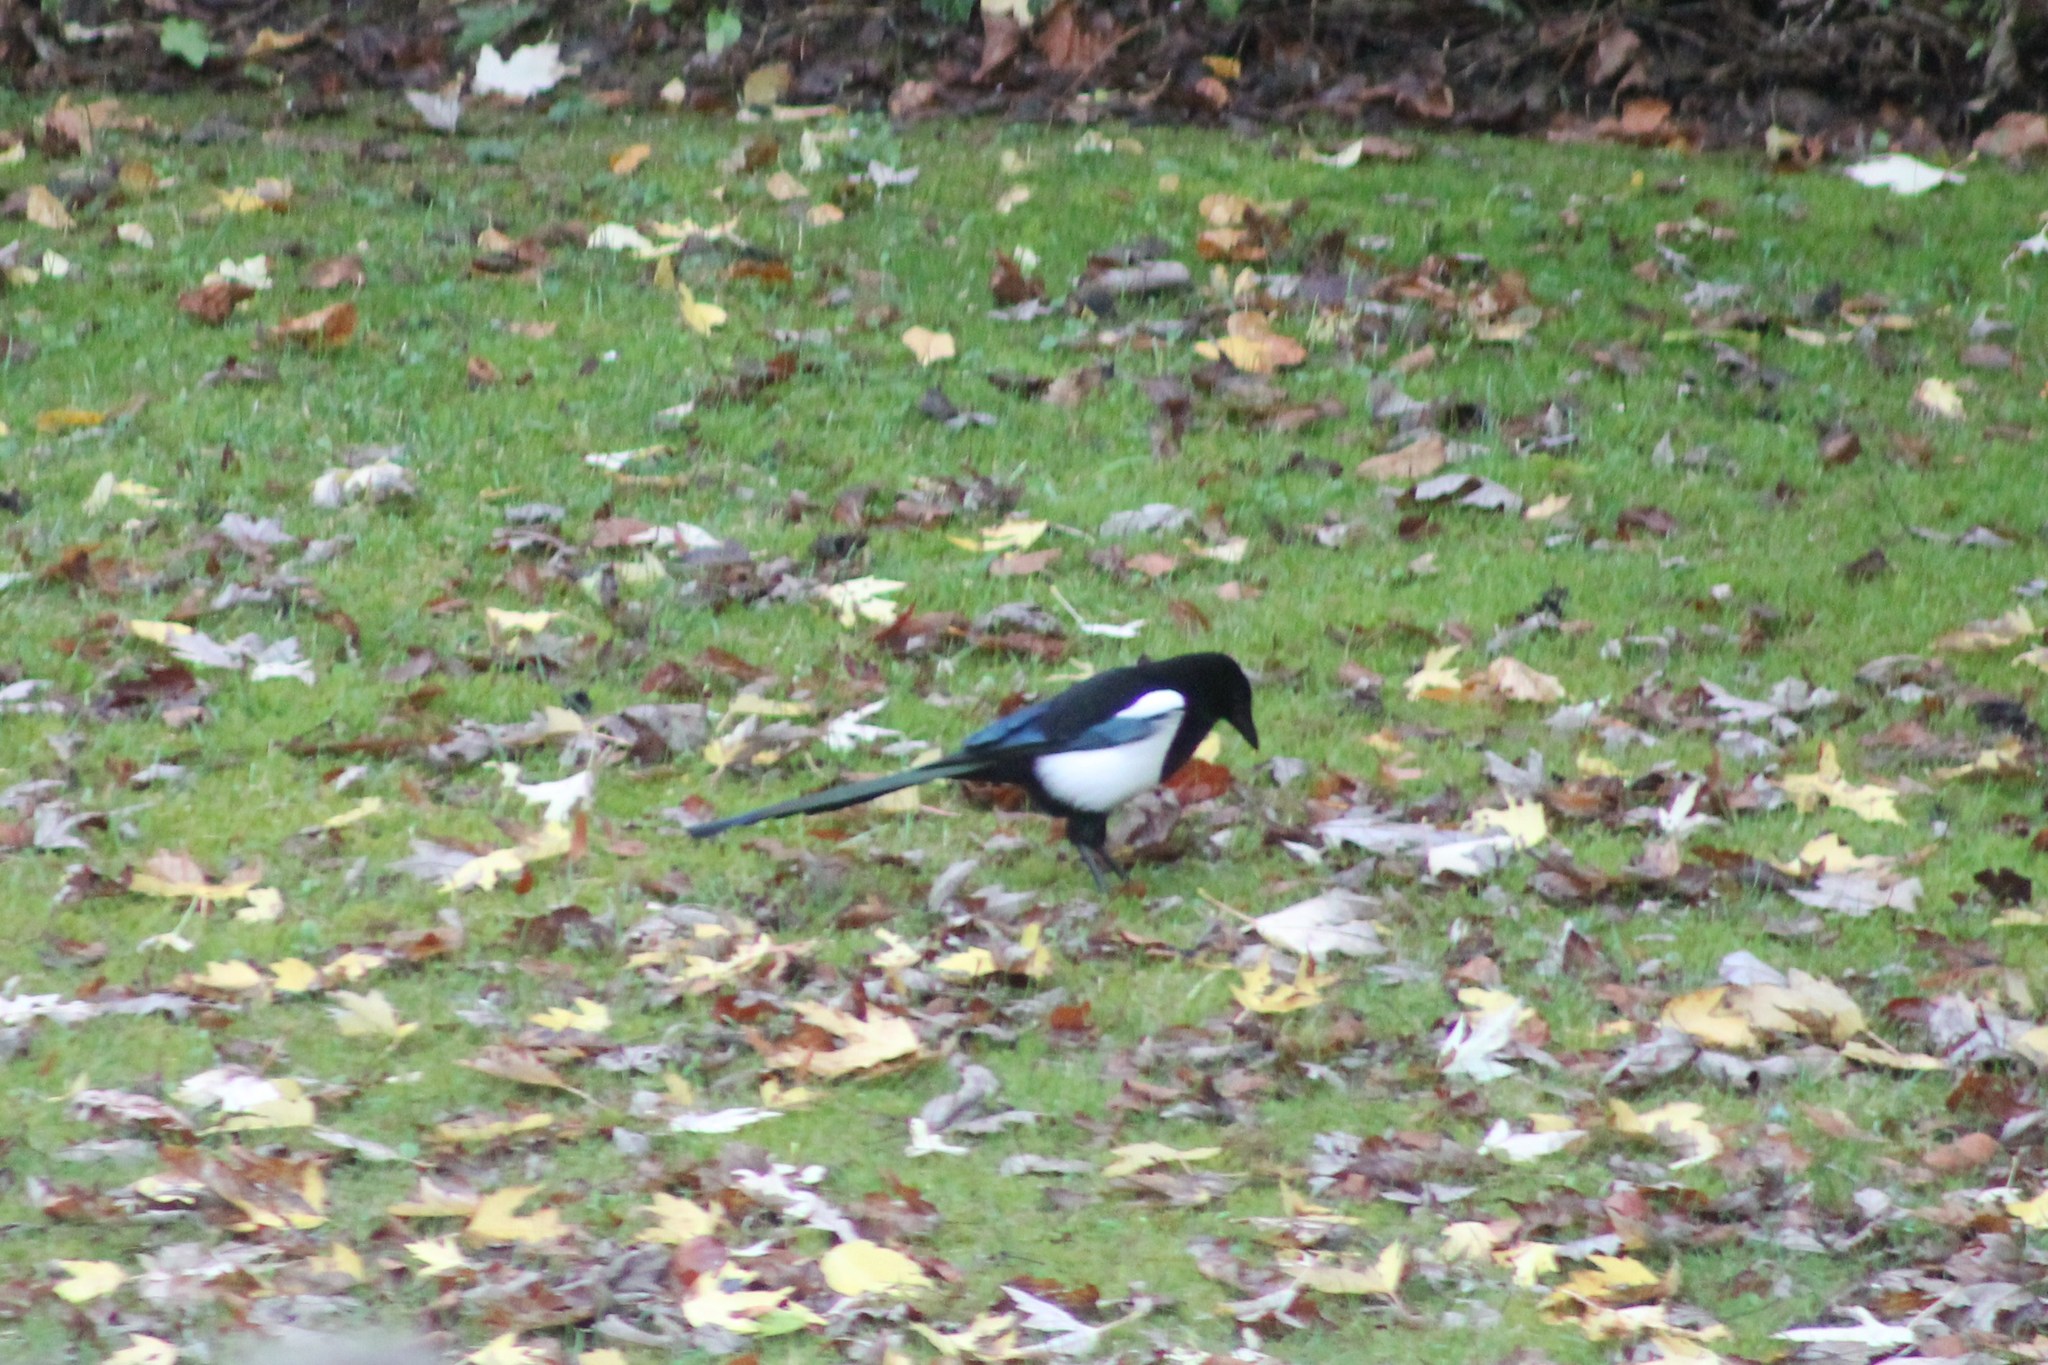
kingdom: Animalia
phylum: Chordata
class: Aves
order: Passeriformes
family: Corvidae
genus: Pica
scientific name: Pica pica
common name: Eurasian magpie
